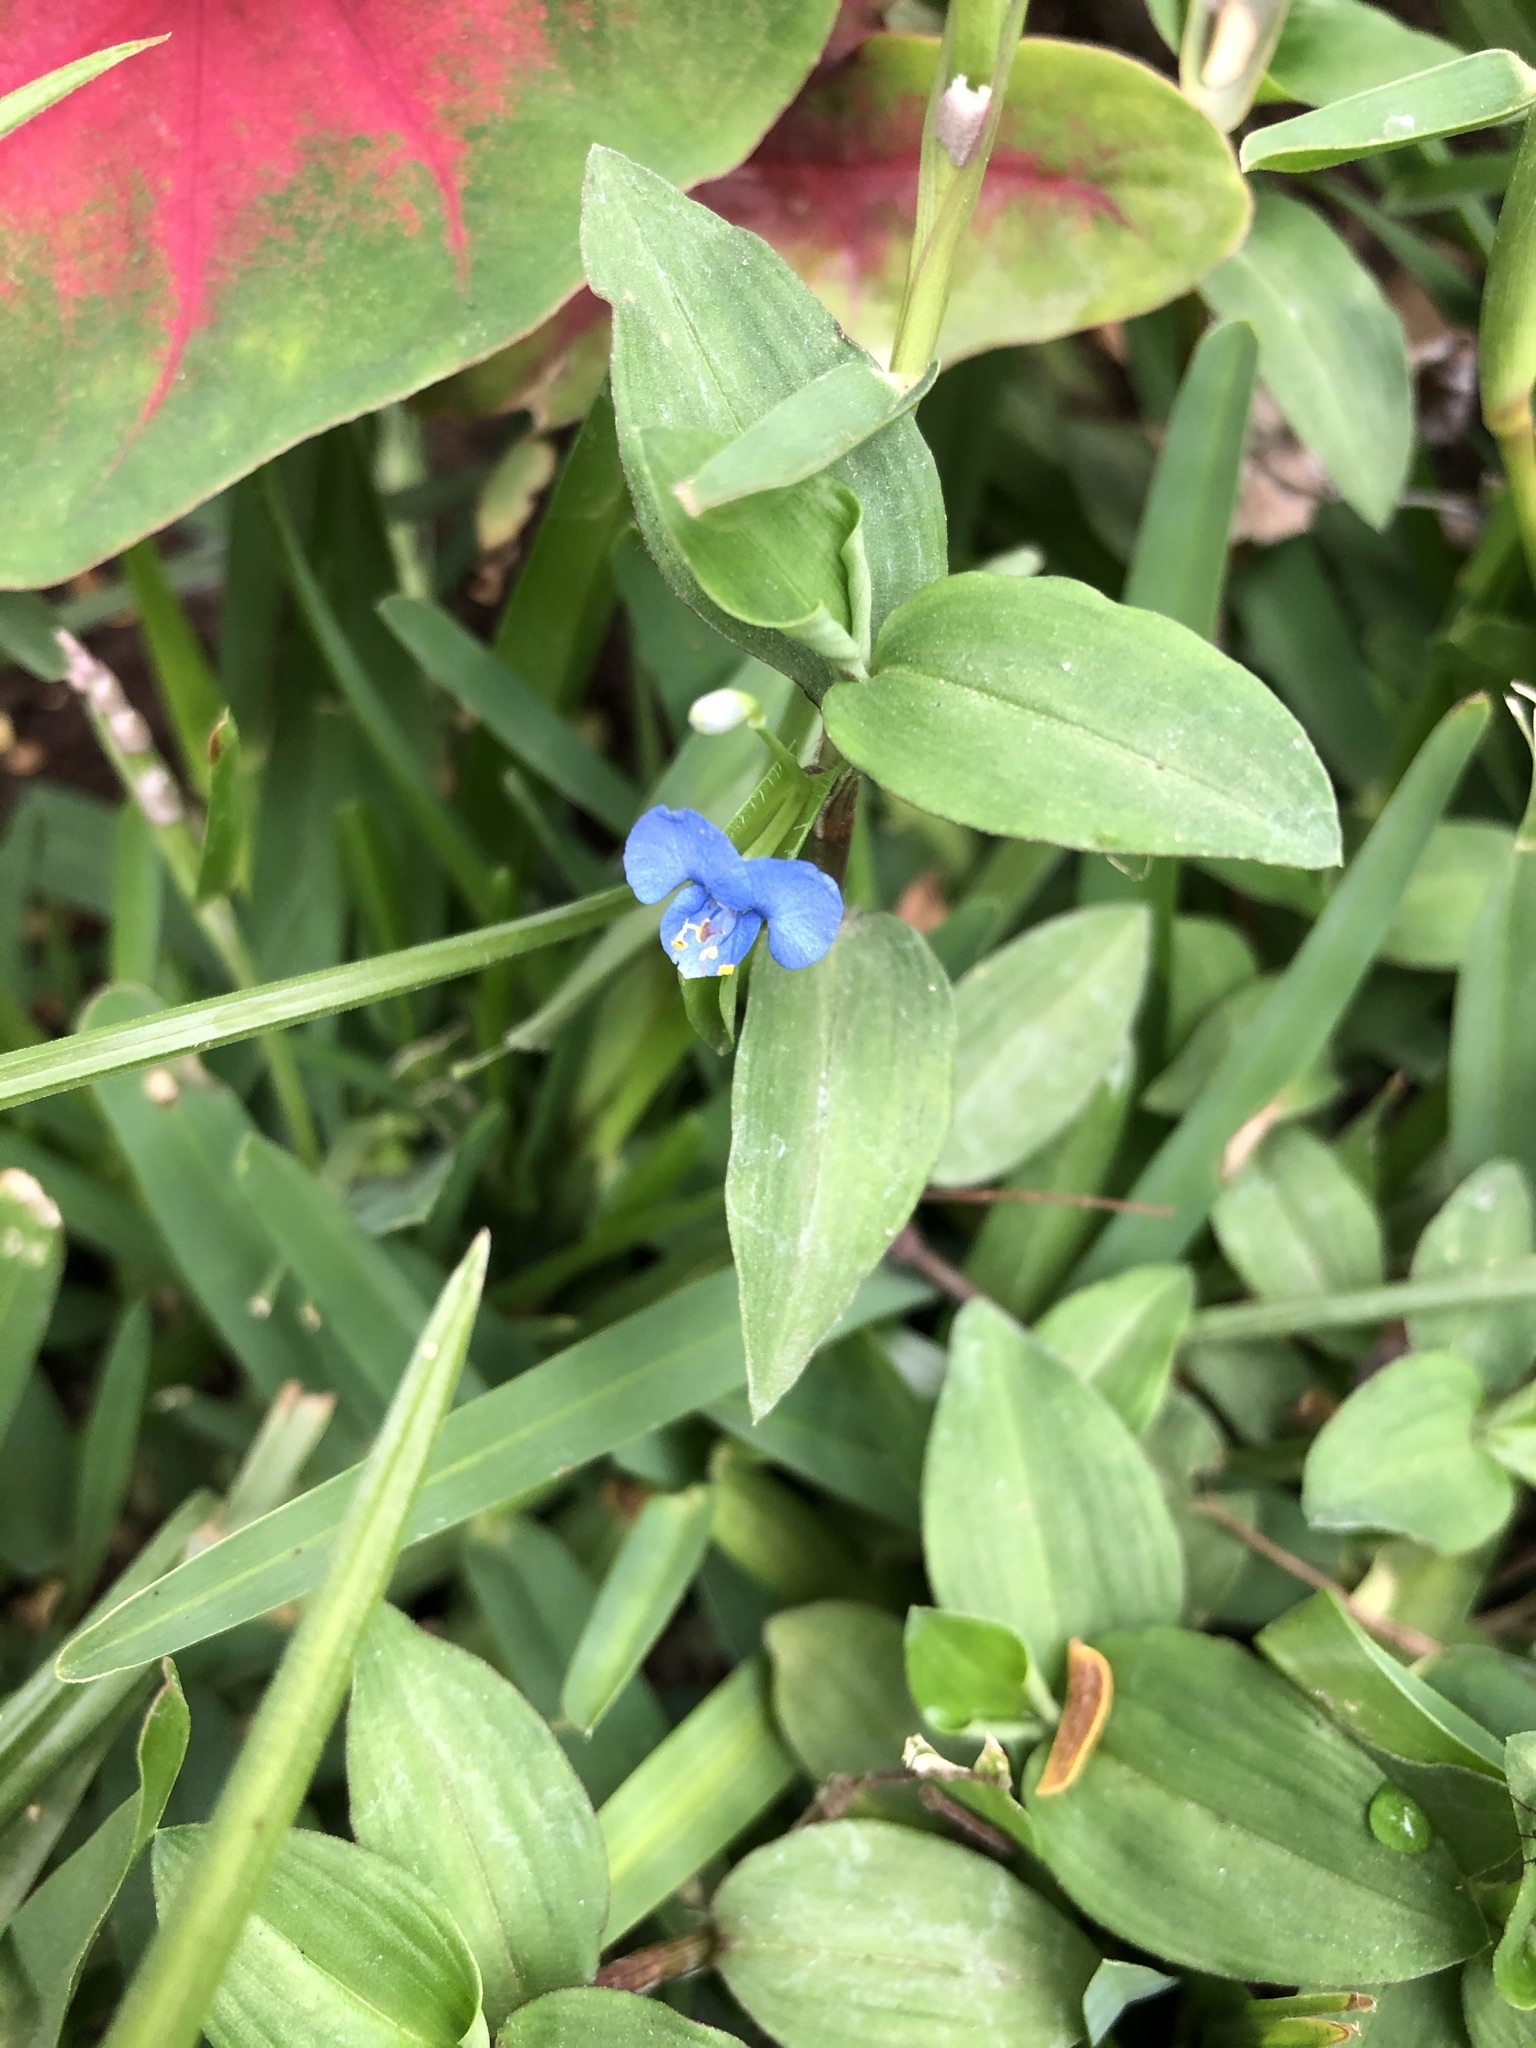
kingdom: Plantae
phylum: Tracheophyta
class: Liliopsida
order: Commelinales
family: Commelinaceae
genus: Commelina
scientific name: Commelina diffusa
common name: Climbing dayflower
